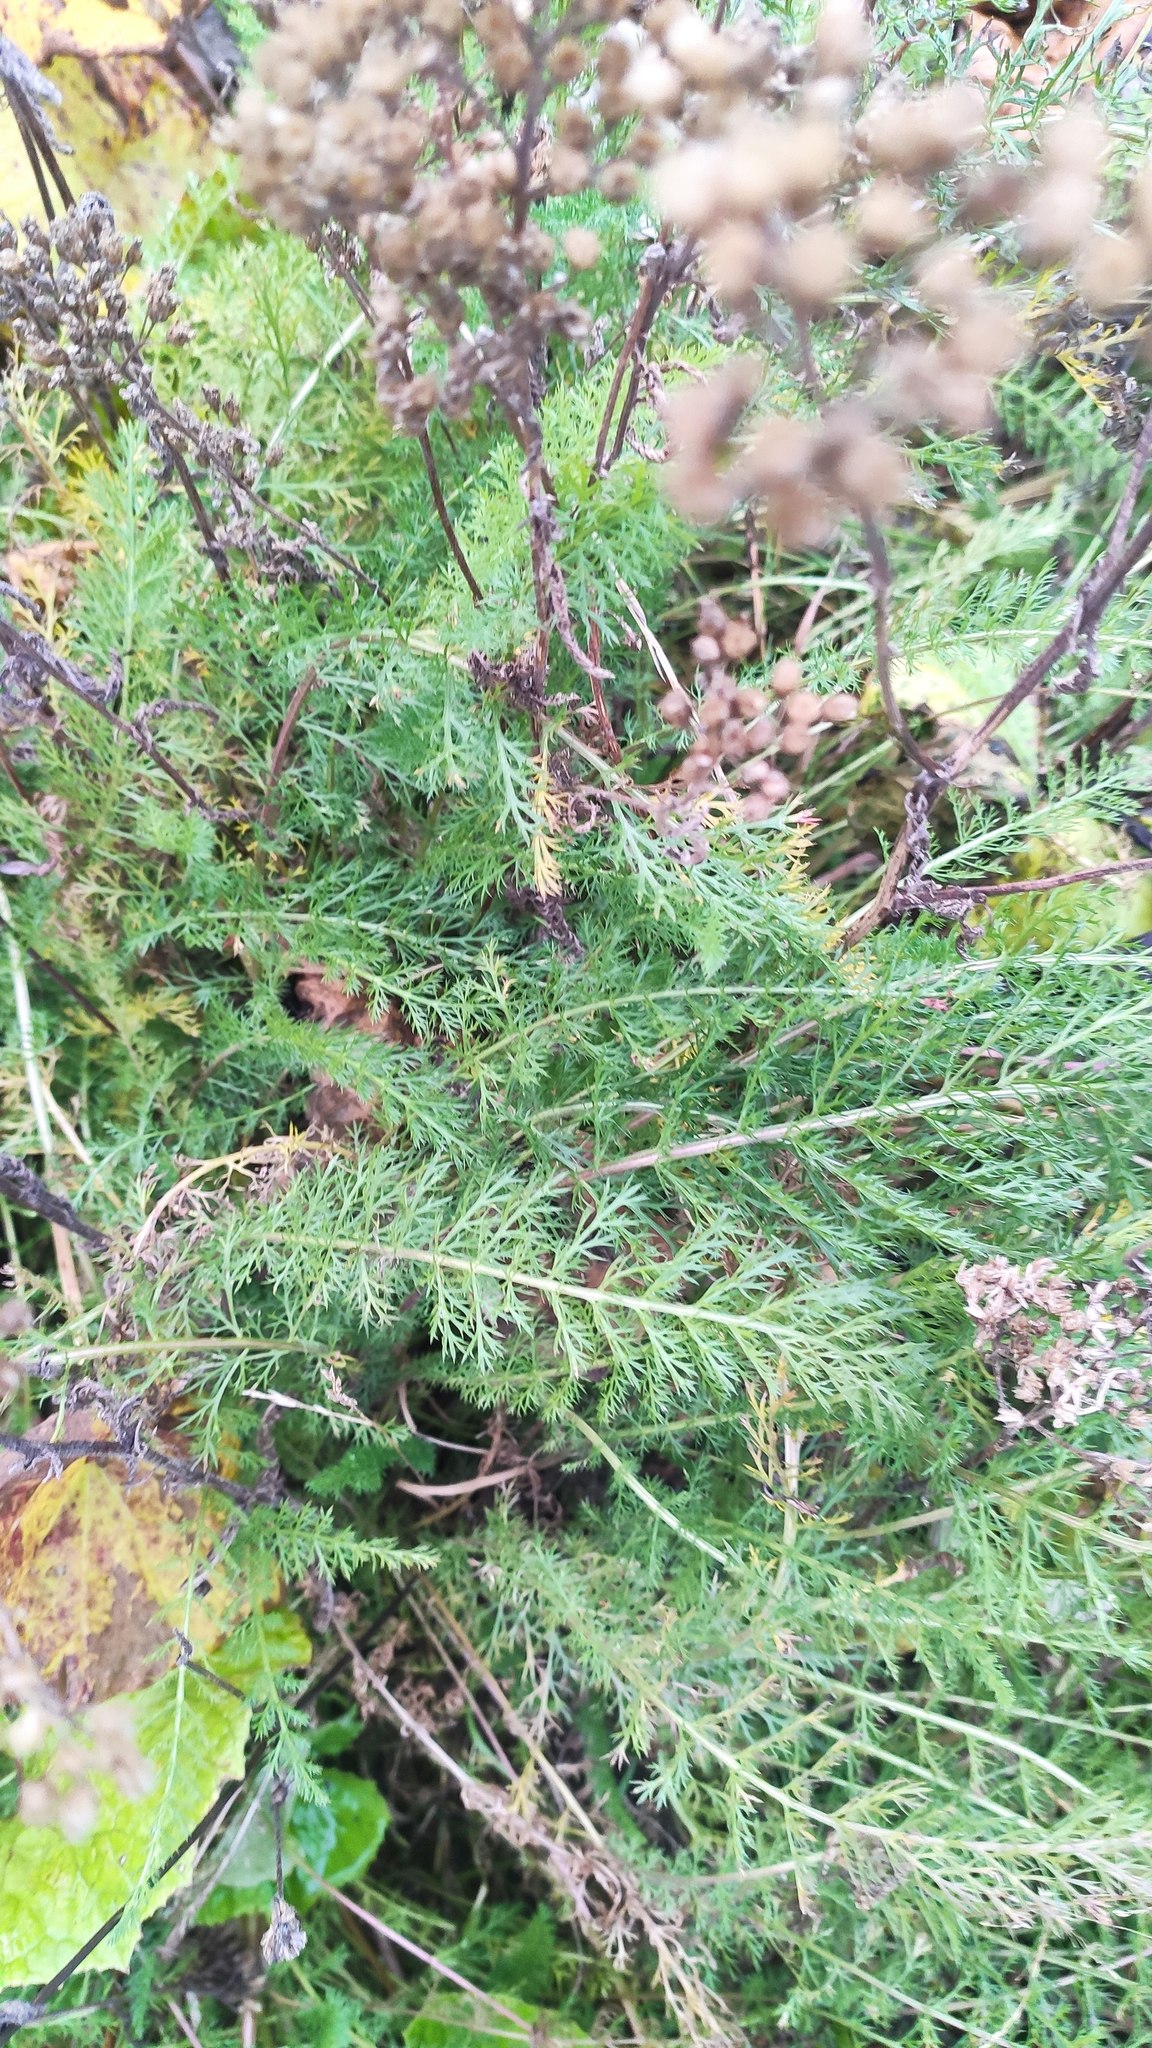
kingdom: Plantae
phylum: Tracheophyta
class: Magnoliopsida
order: Asterales
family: Asteraceae
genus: Achillea
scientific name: Achillea millefolium
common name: Yarrow
